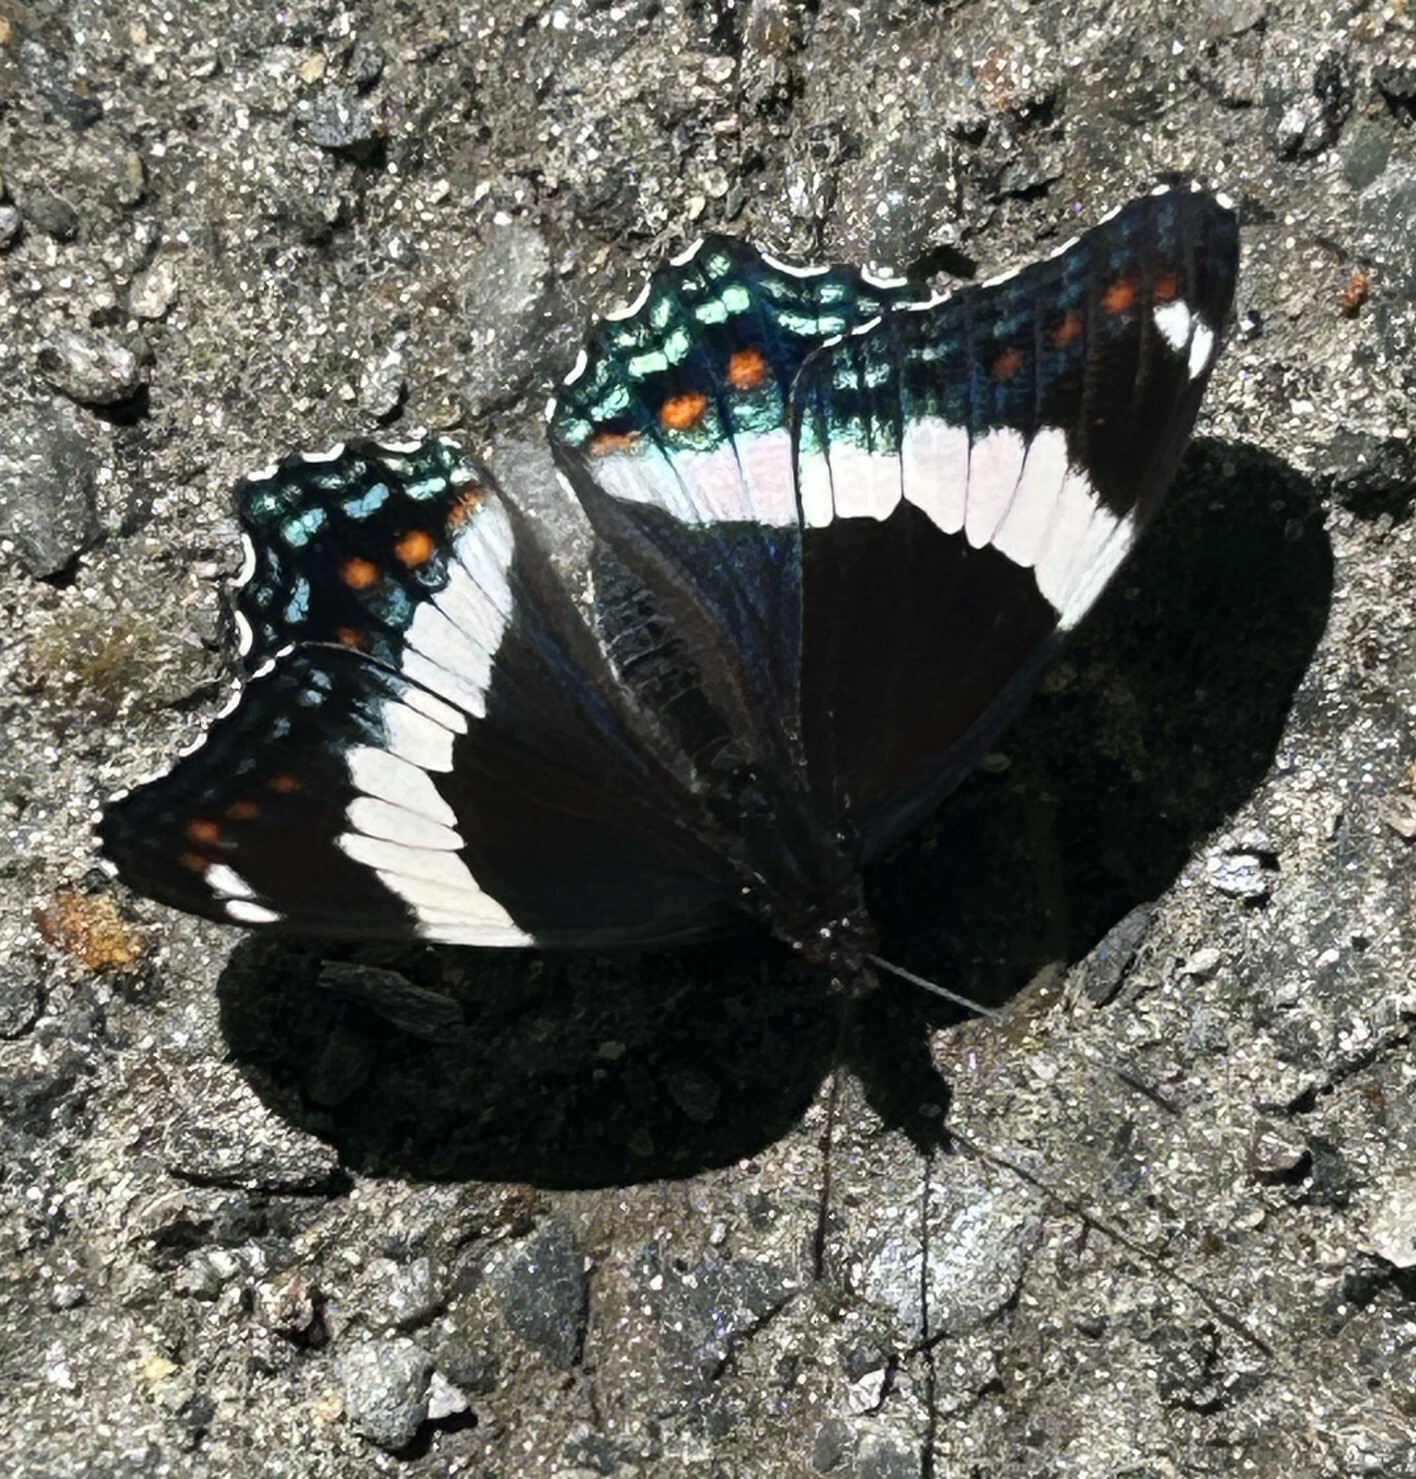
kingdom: Animalia
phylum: Arthropoda
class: Insecta
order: Lepidoptera
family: Nymphalidae
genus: Limenitis
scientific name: Limenitis arthemis
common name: Red-spotted admiral
